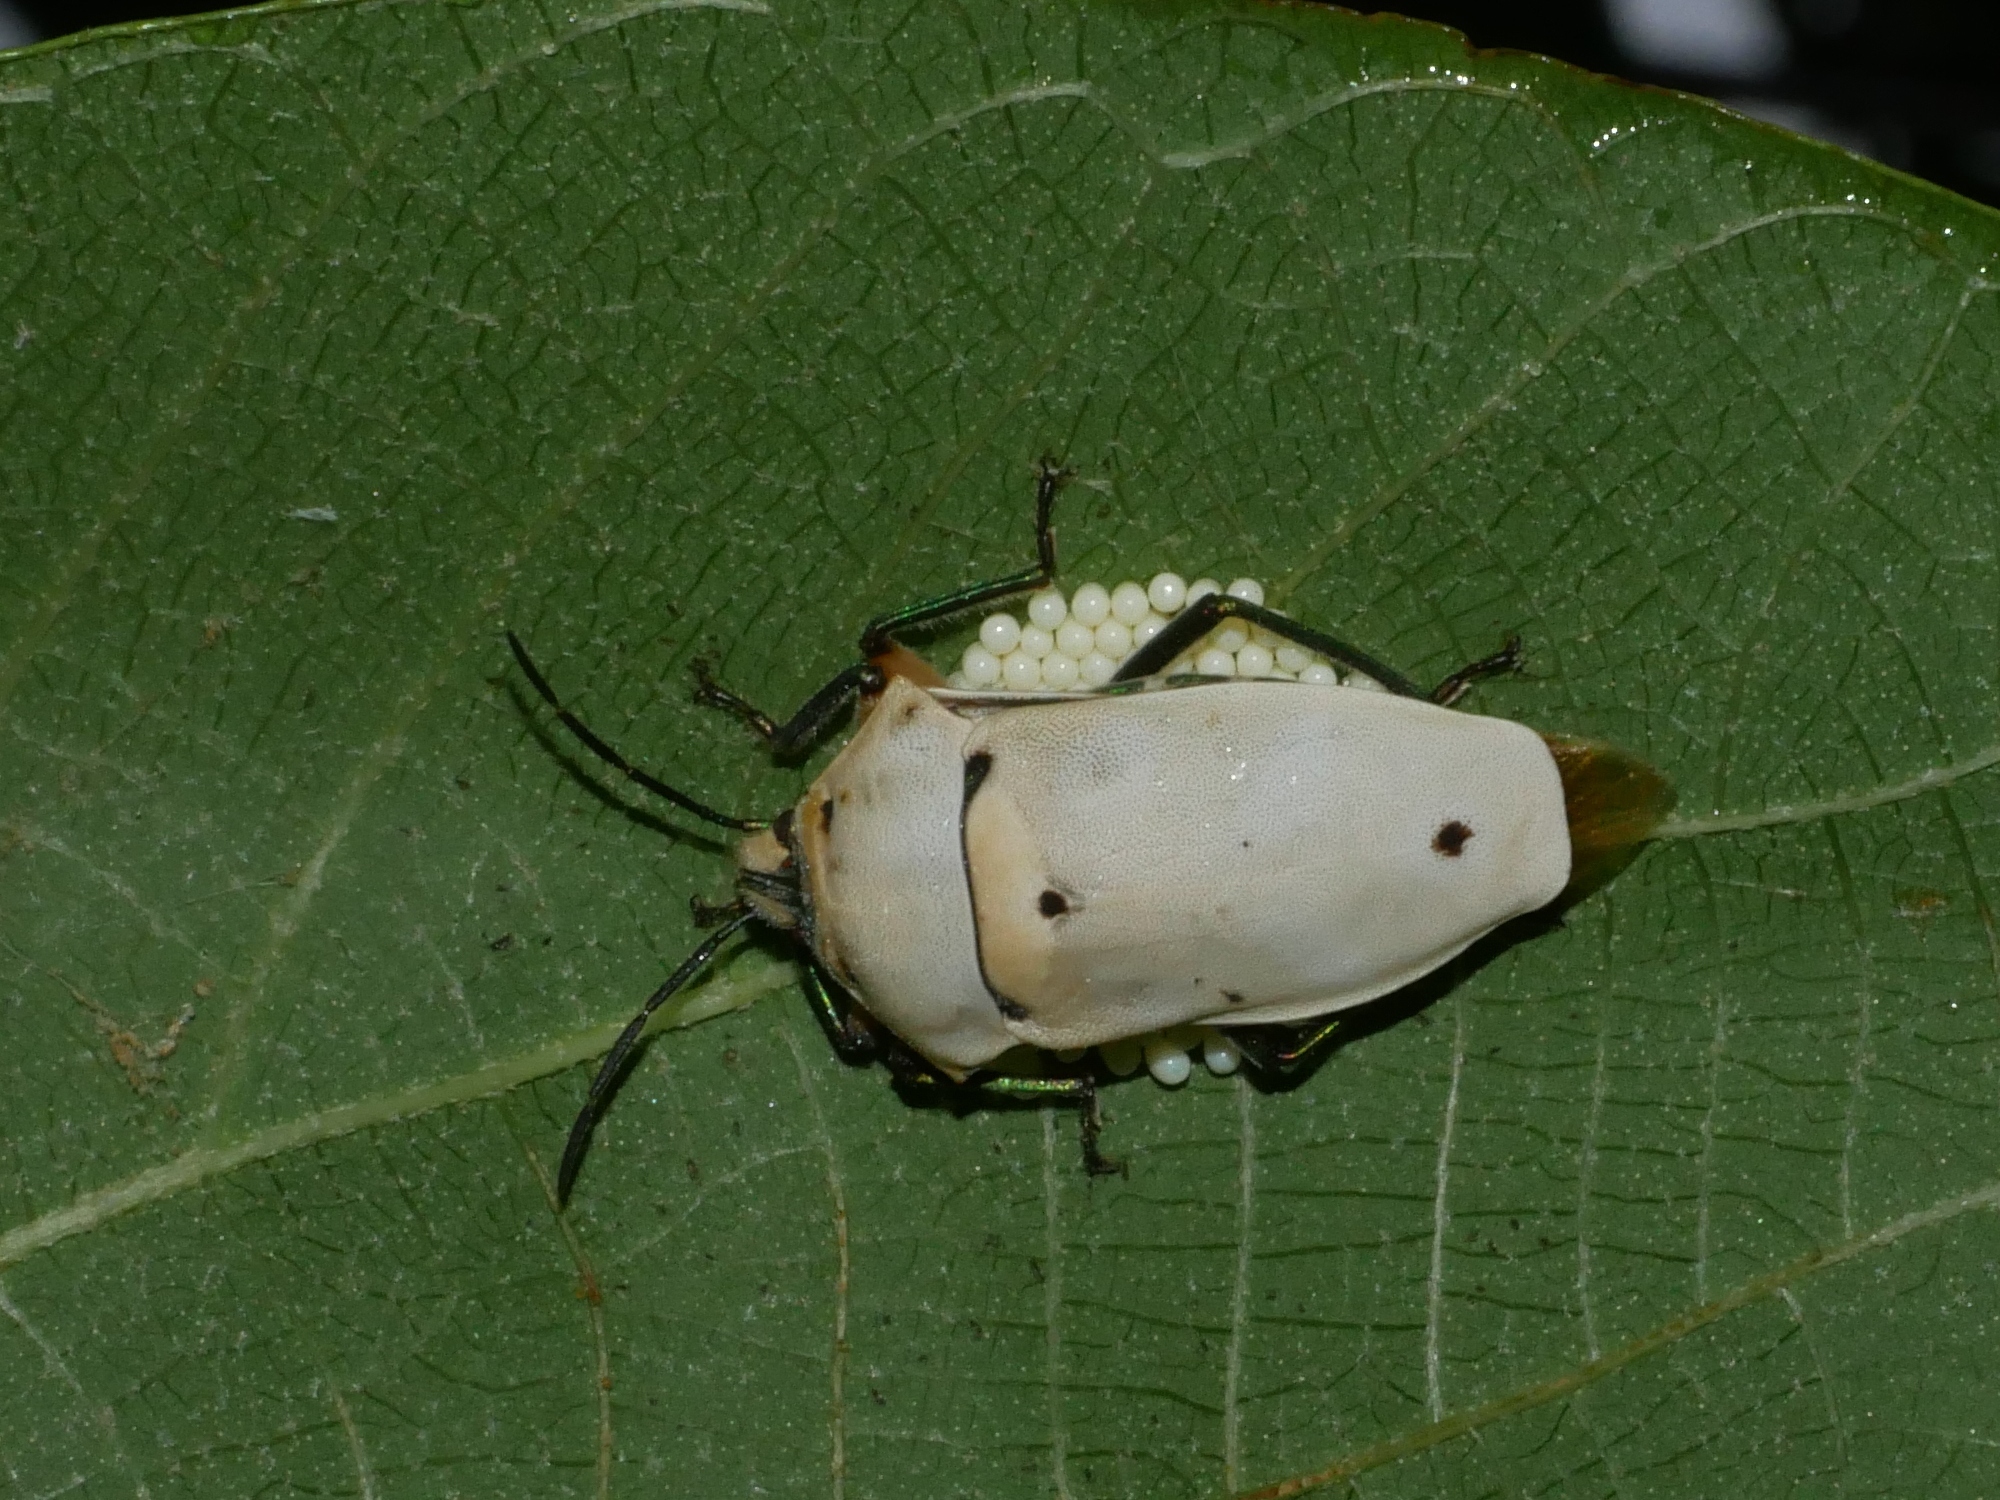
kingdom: Animalia
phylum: Arthropoda
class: Insecta
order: Hemiptera
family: Scutelleridae
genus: Cantao
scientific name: Cantao ocellatus
